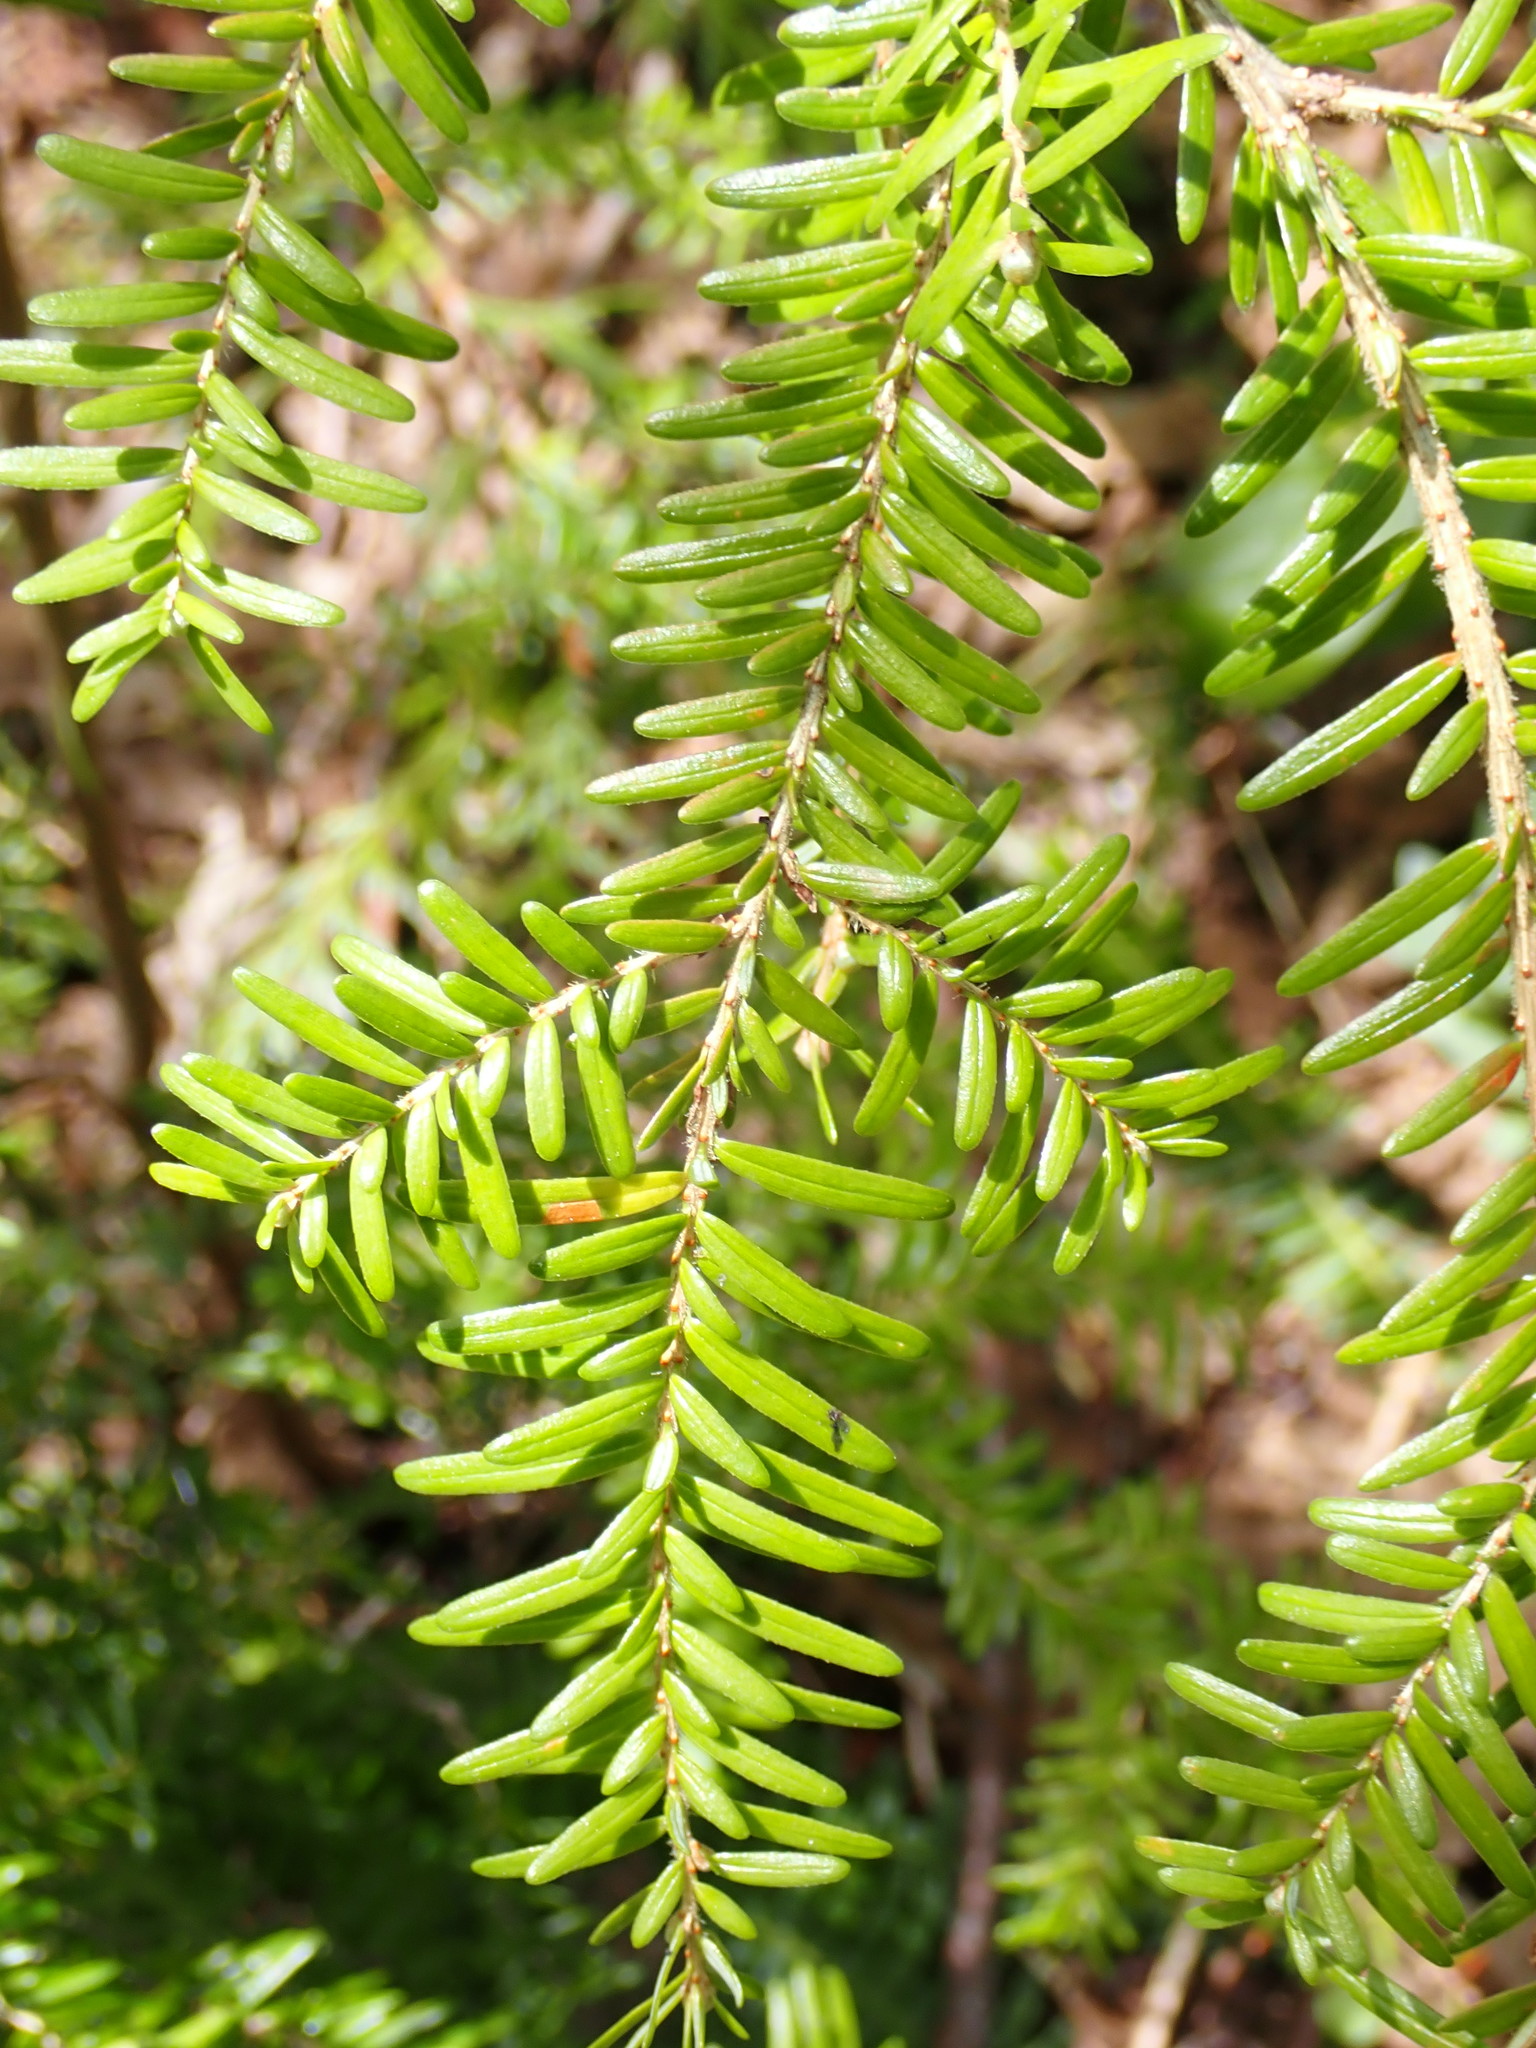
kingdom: Plantae
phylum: Tracheophyta
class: Pinopsida
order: Pinales
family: Pinaceae
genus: Tsuga
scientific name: Tsuga heterophylla
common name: Western hemlock
